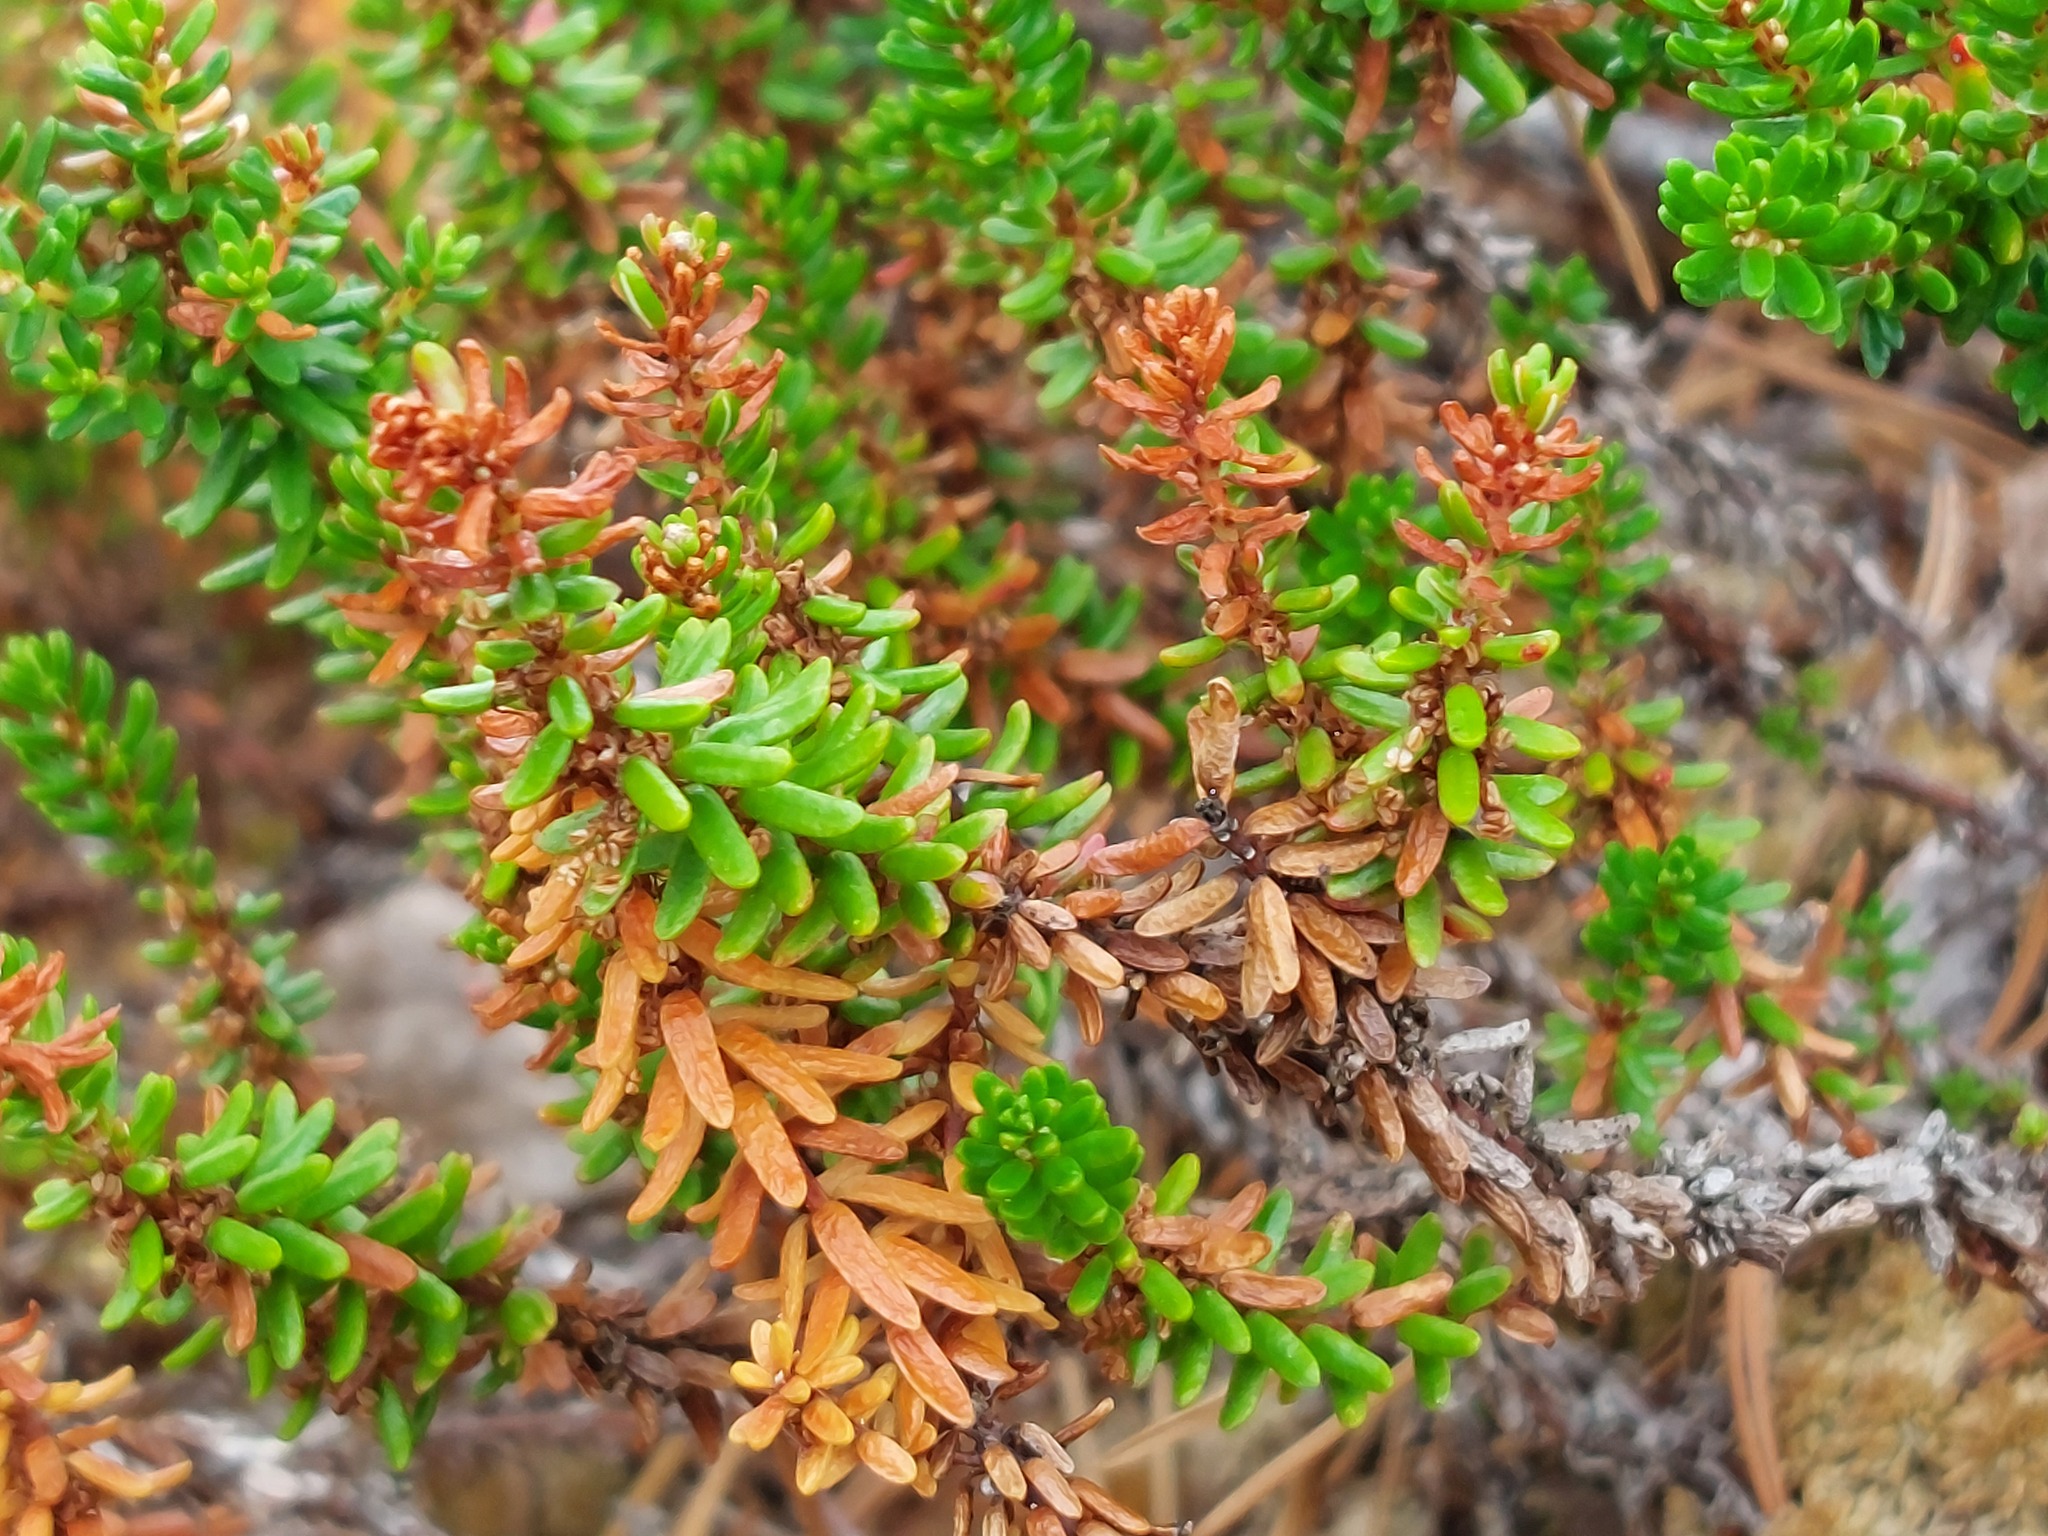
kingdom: Plantae
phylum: Tracheophyta
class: Magnoliopsida
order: Ericales
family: Ericaceae
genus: Empetrum
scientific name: Empetrum nigrum
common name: Black crowberry
